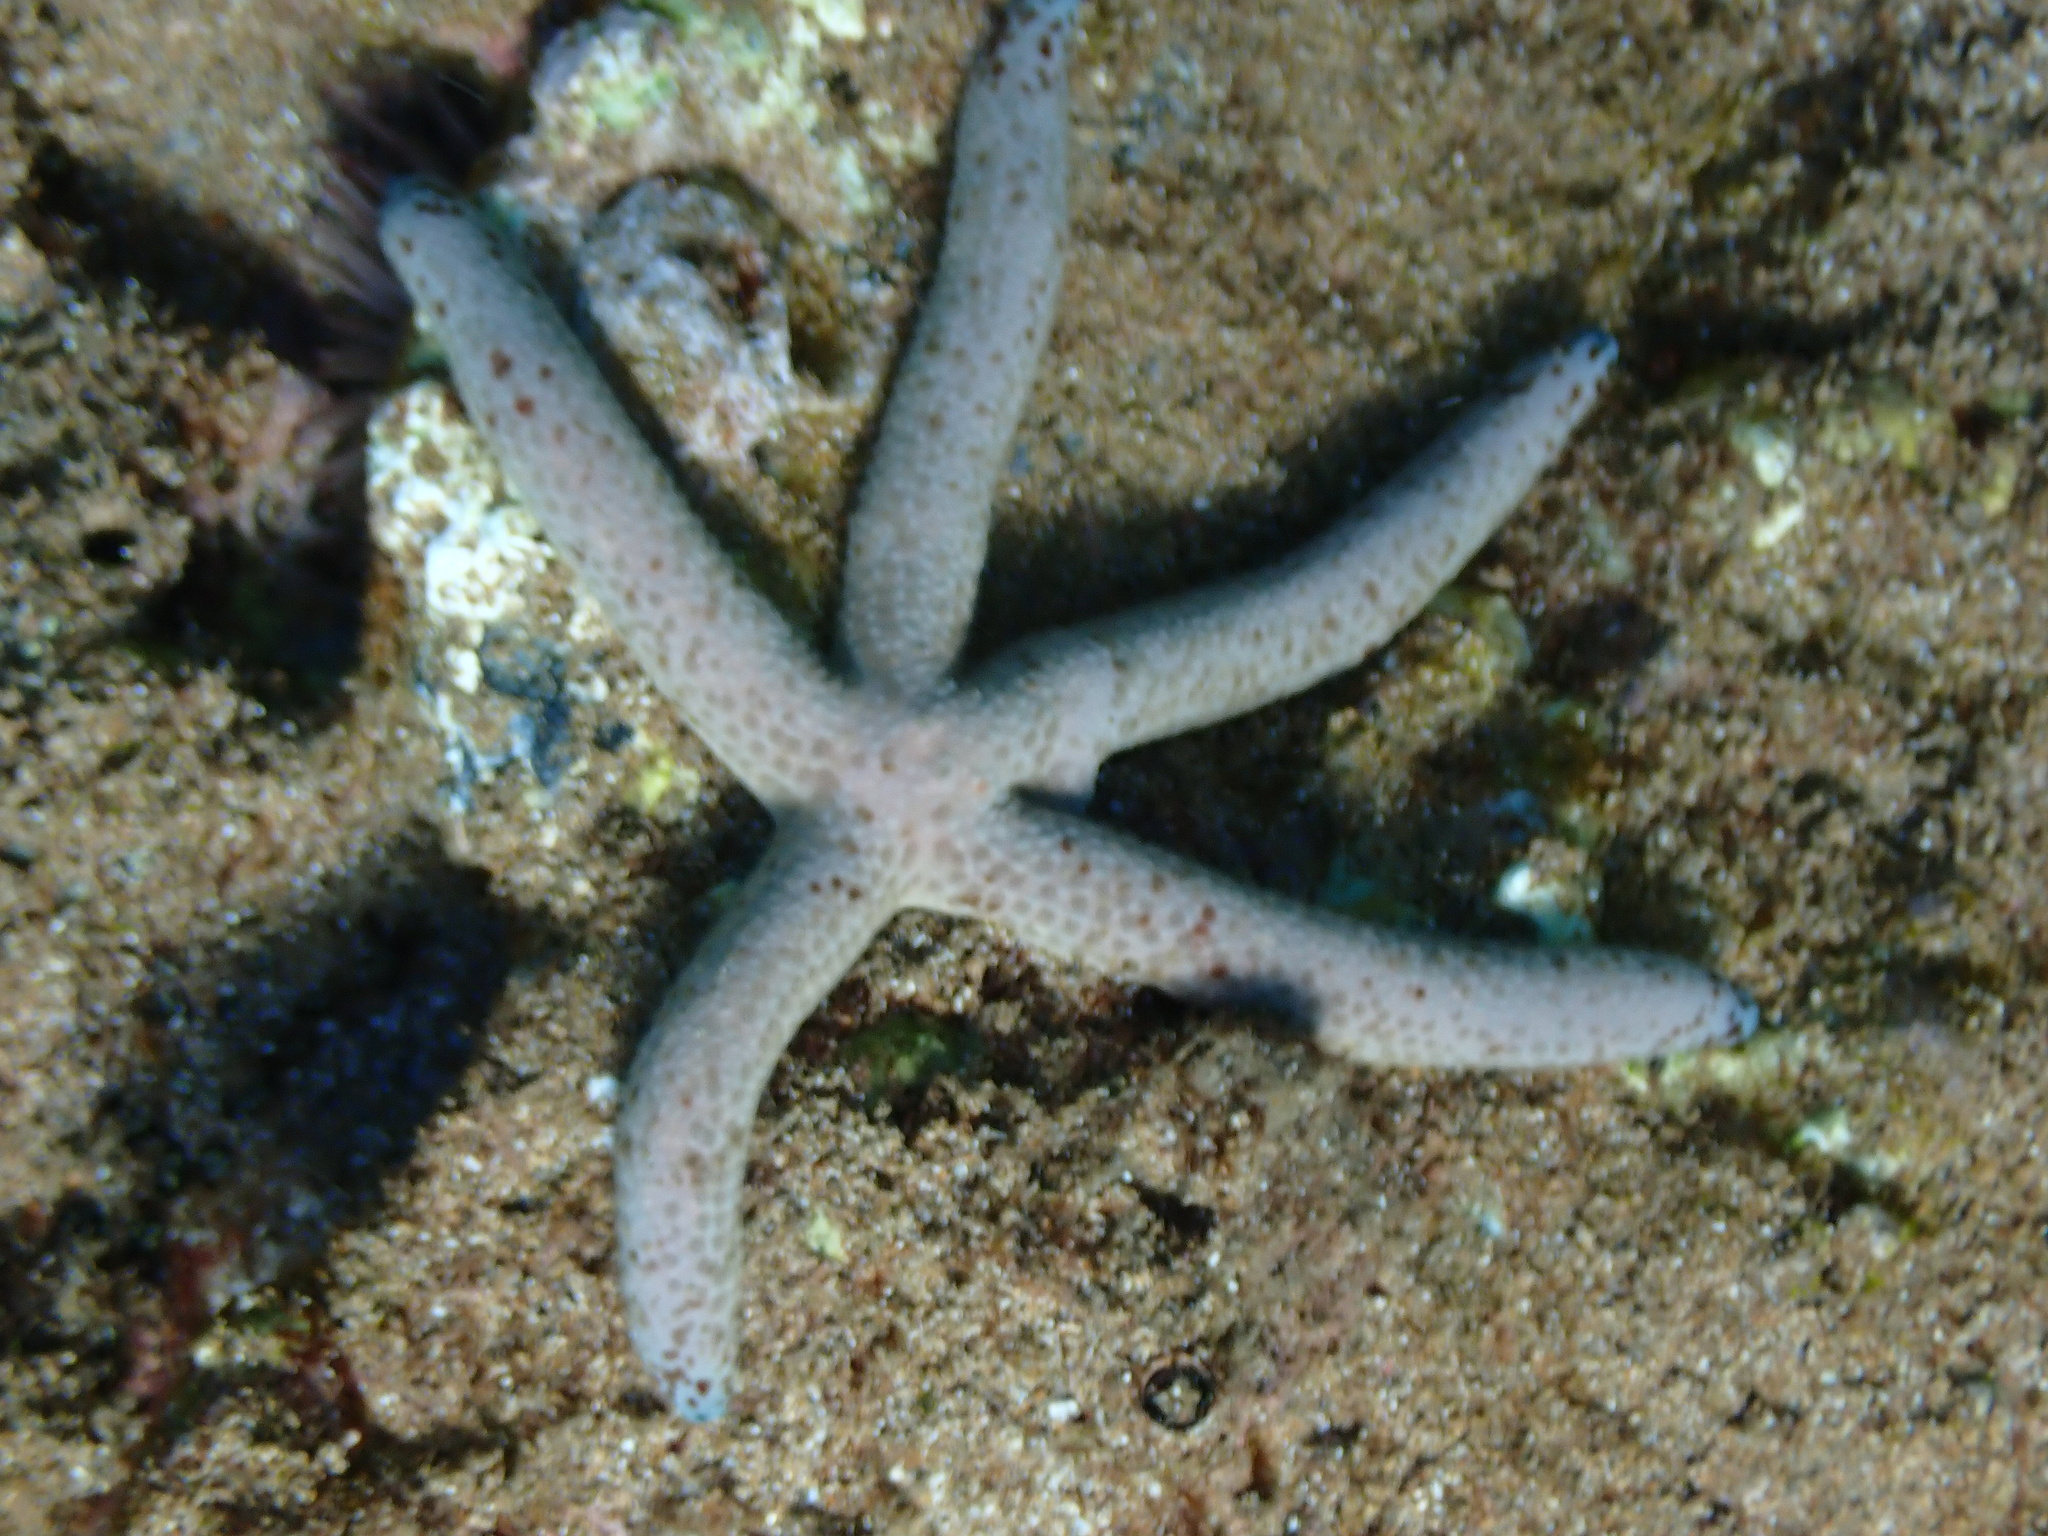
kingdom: Animalia
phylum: Echinodermata
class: Asteroidea
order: Valvatida
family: Ophidiasteridae
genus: Linckia
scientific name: Linckia multifora
